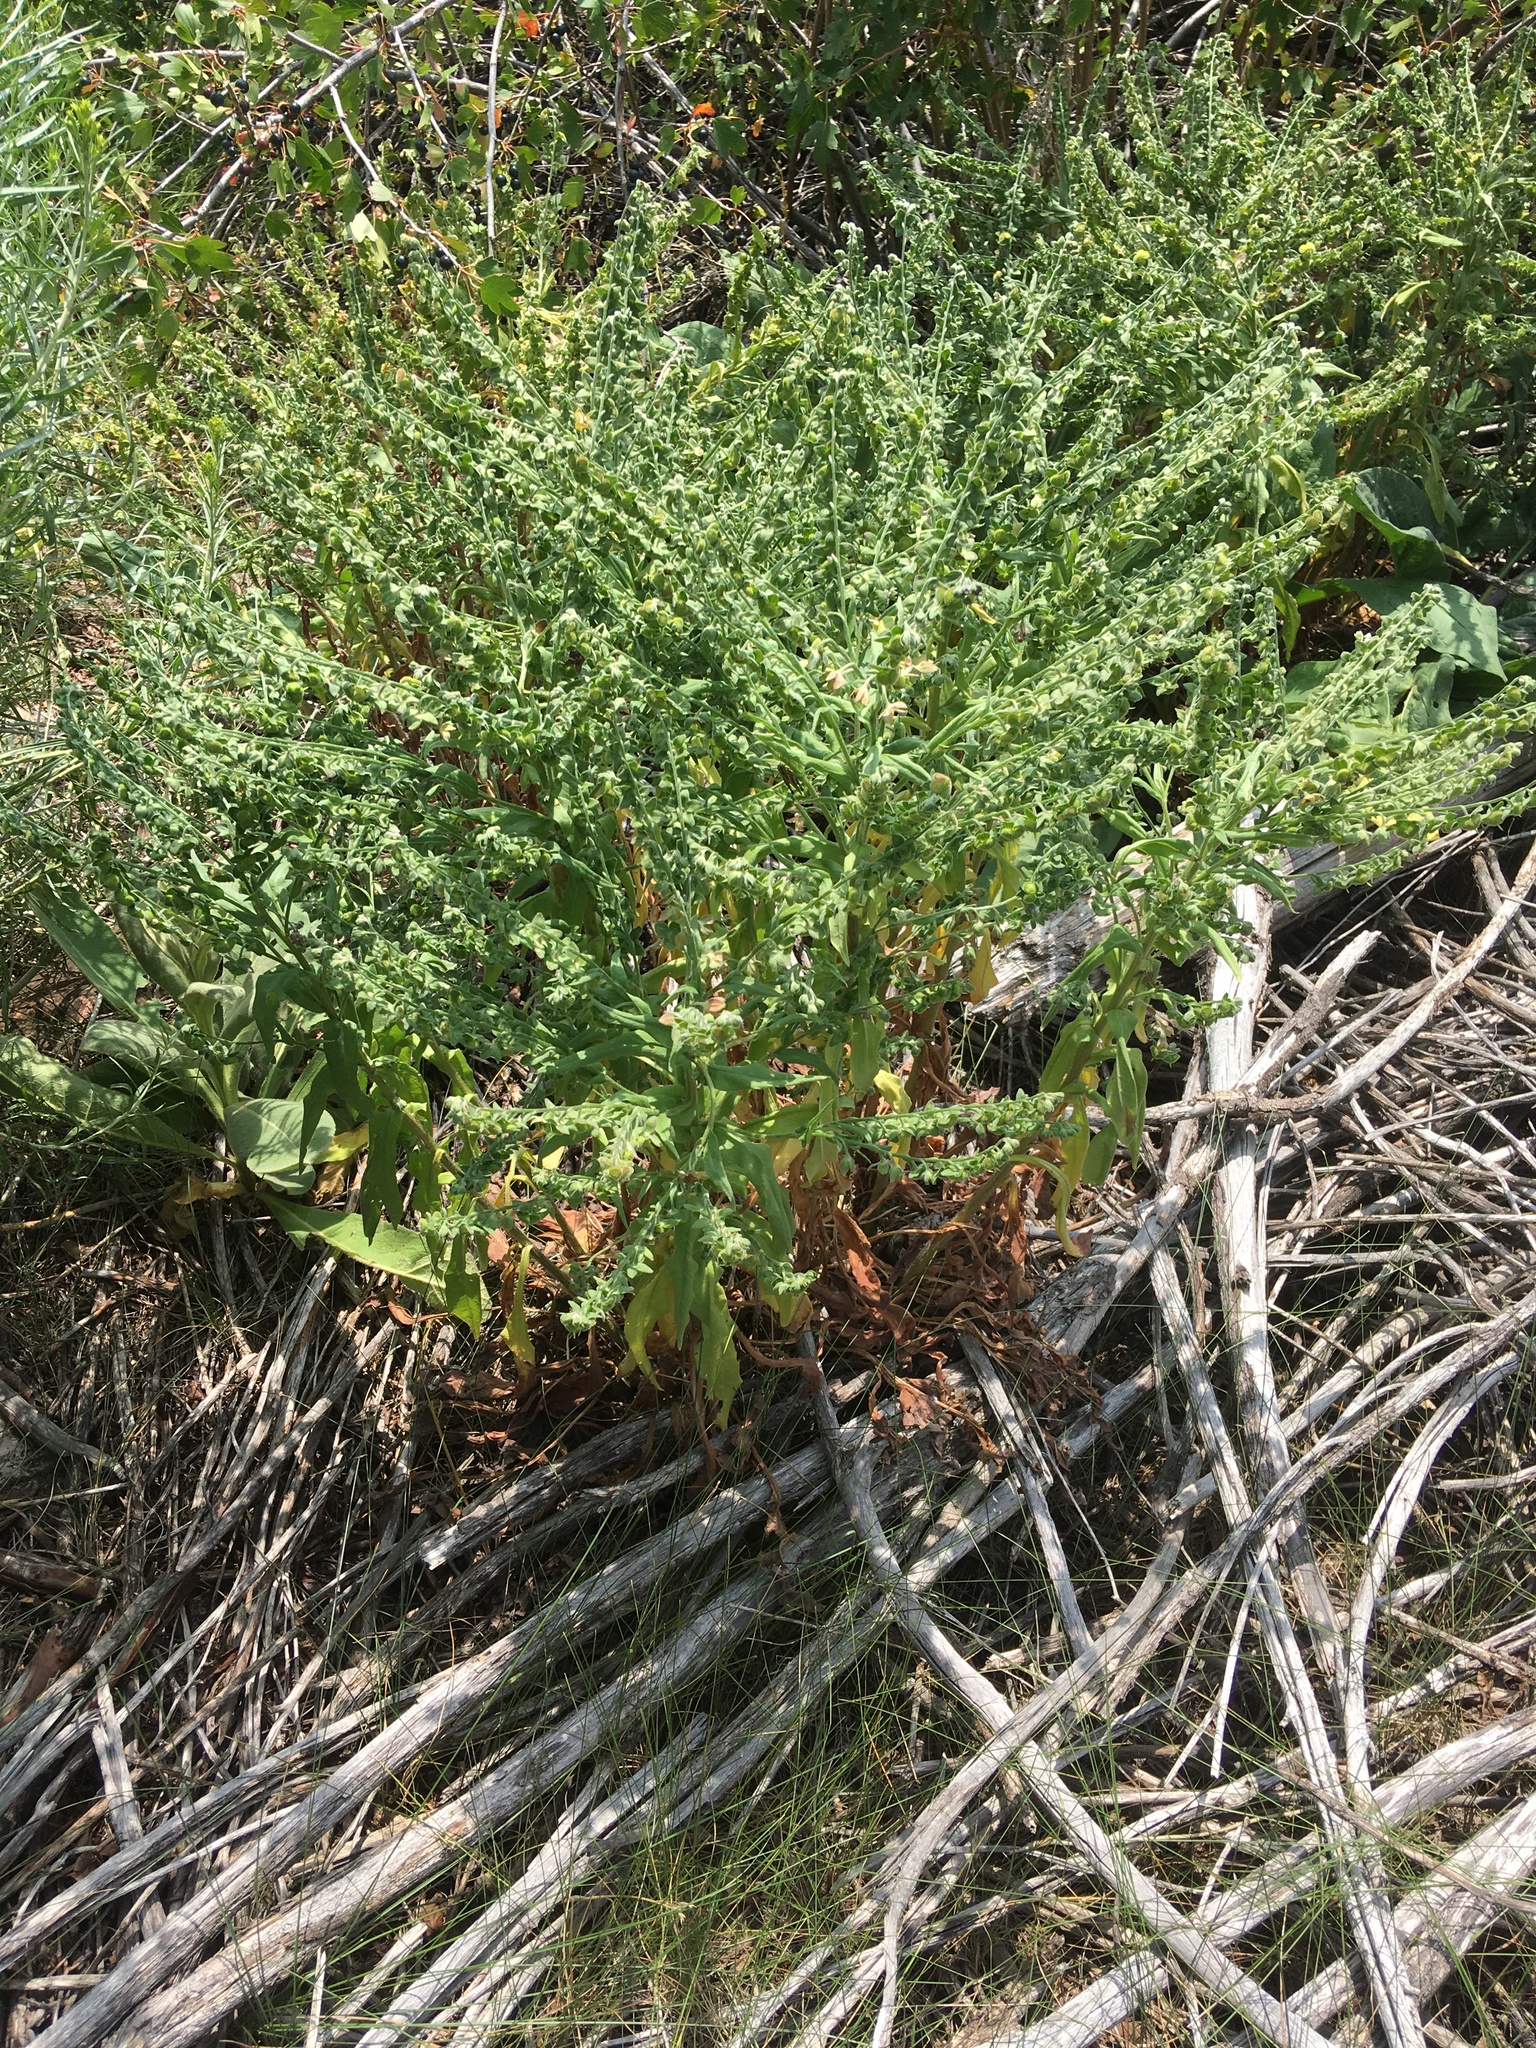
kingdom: Plantae
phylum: Tracheophyta
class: Magnoliopsida
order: Boraginales
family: Boraginaceae
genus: Cynoglossum
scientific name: Cynoglossum officinale
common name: Hound's-tongue
